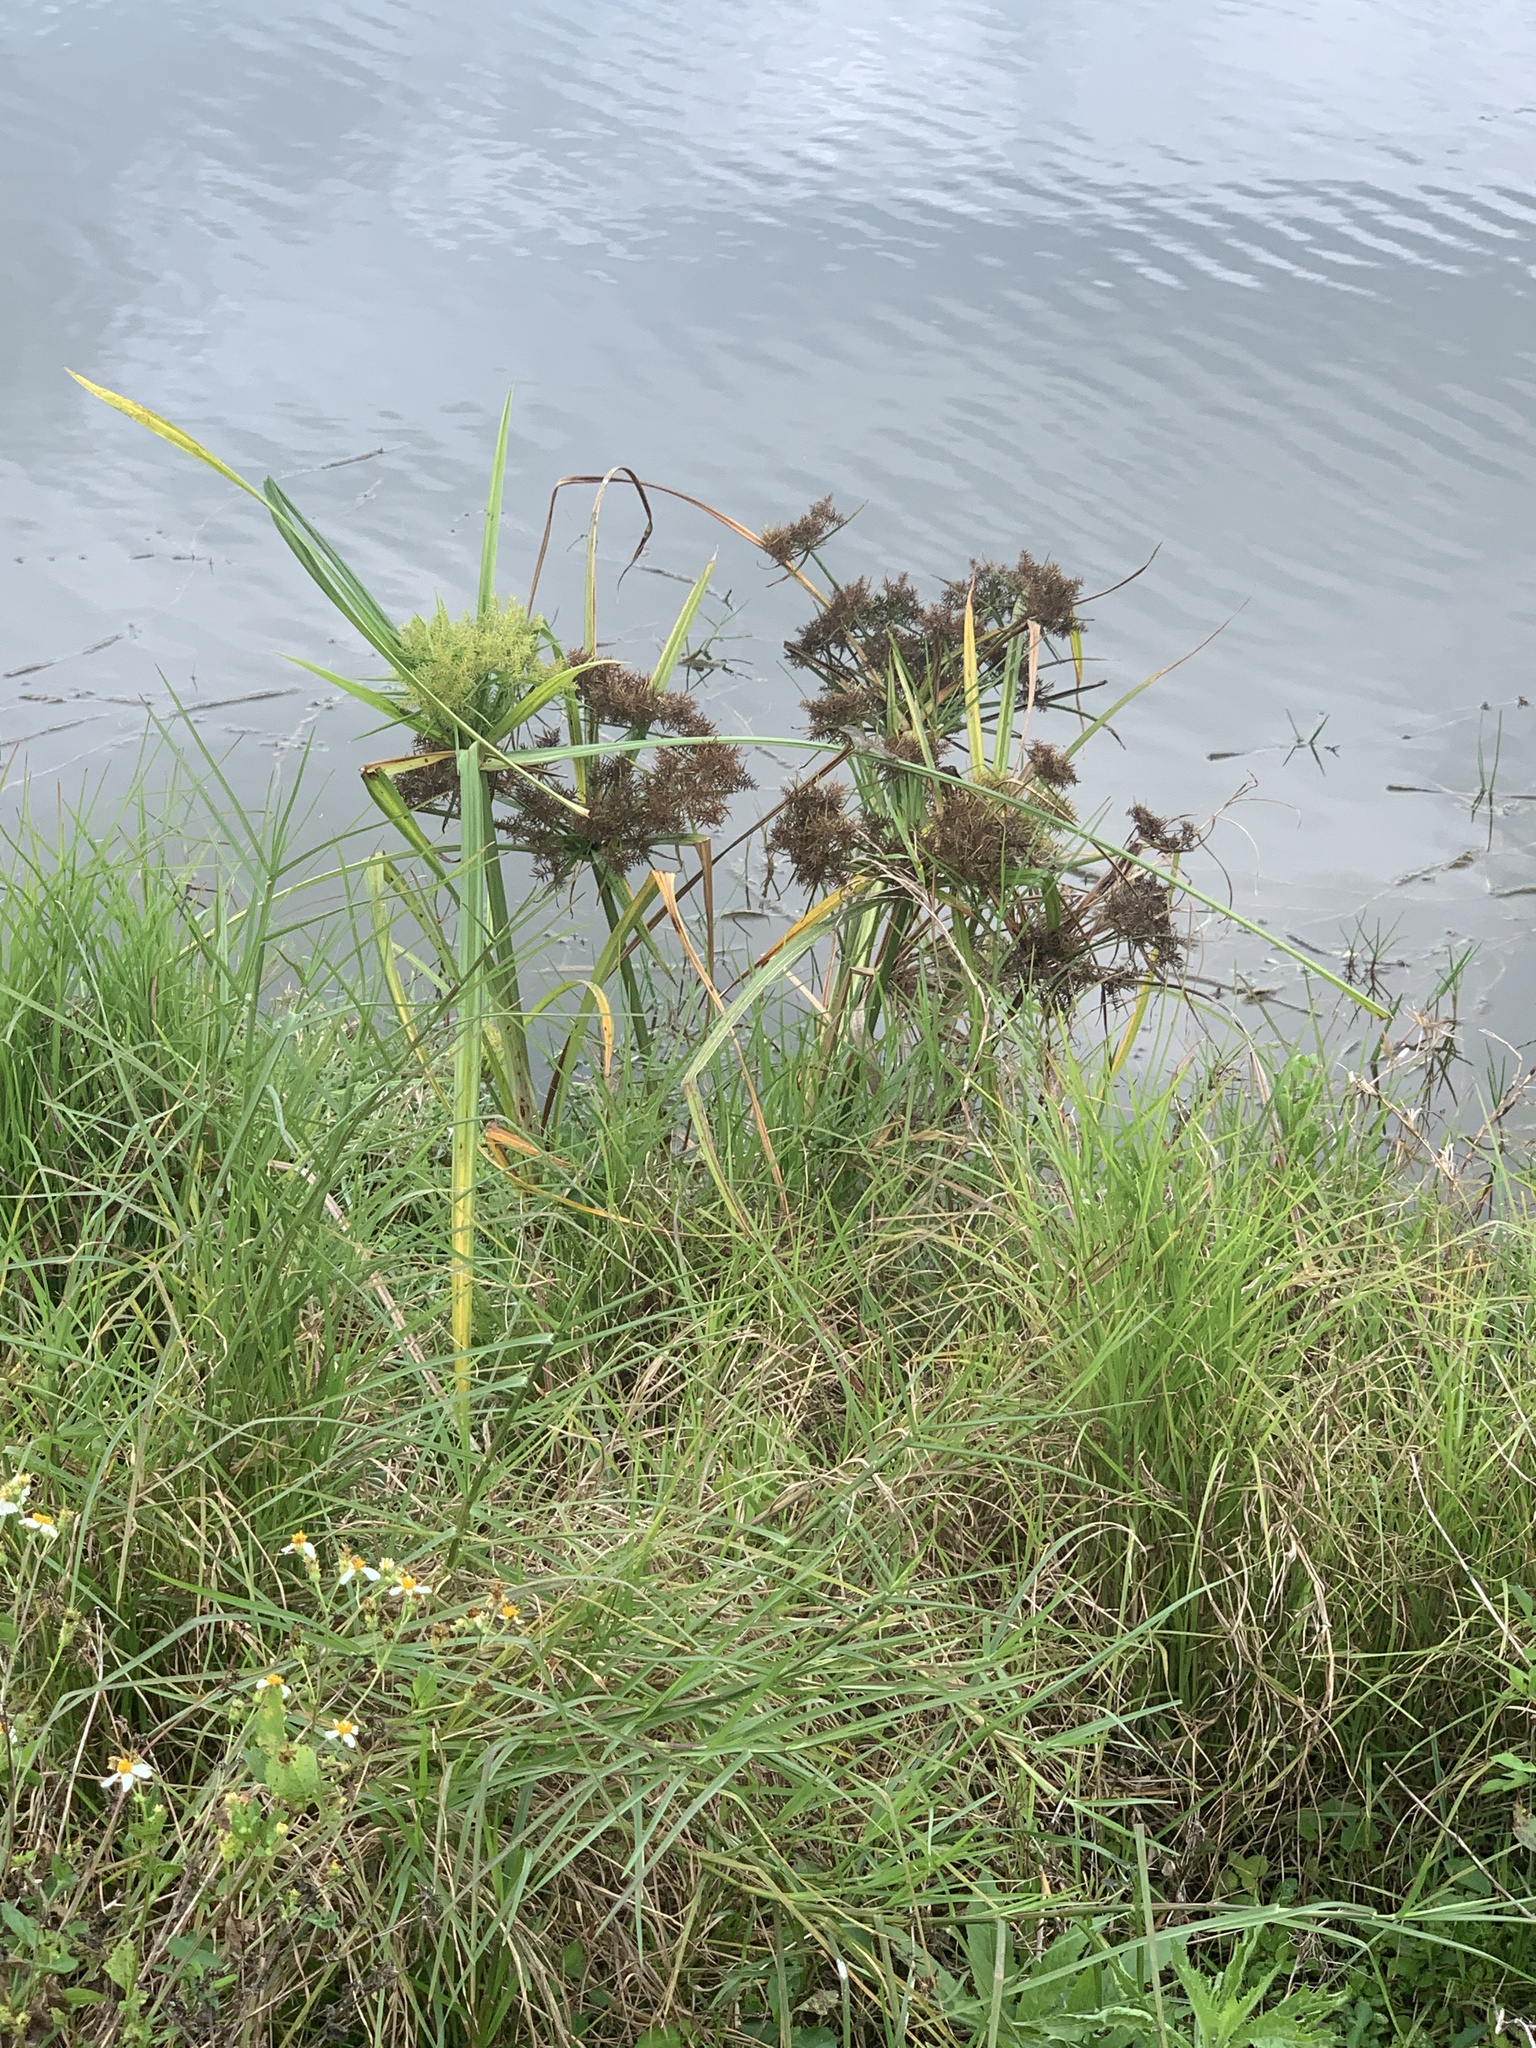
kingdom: Plantae
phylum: Tracheophyta
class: Liliopsida
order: Poales
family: Cyperaceae
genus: Cyperus
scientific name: Cyperus odoratus
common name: Fragrant flatsedge
